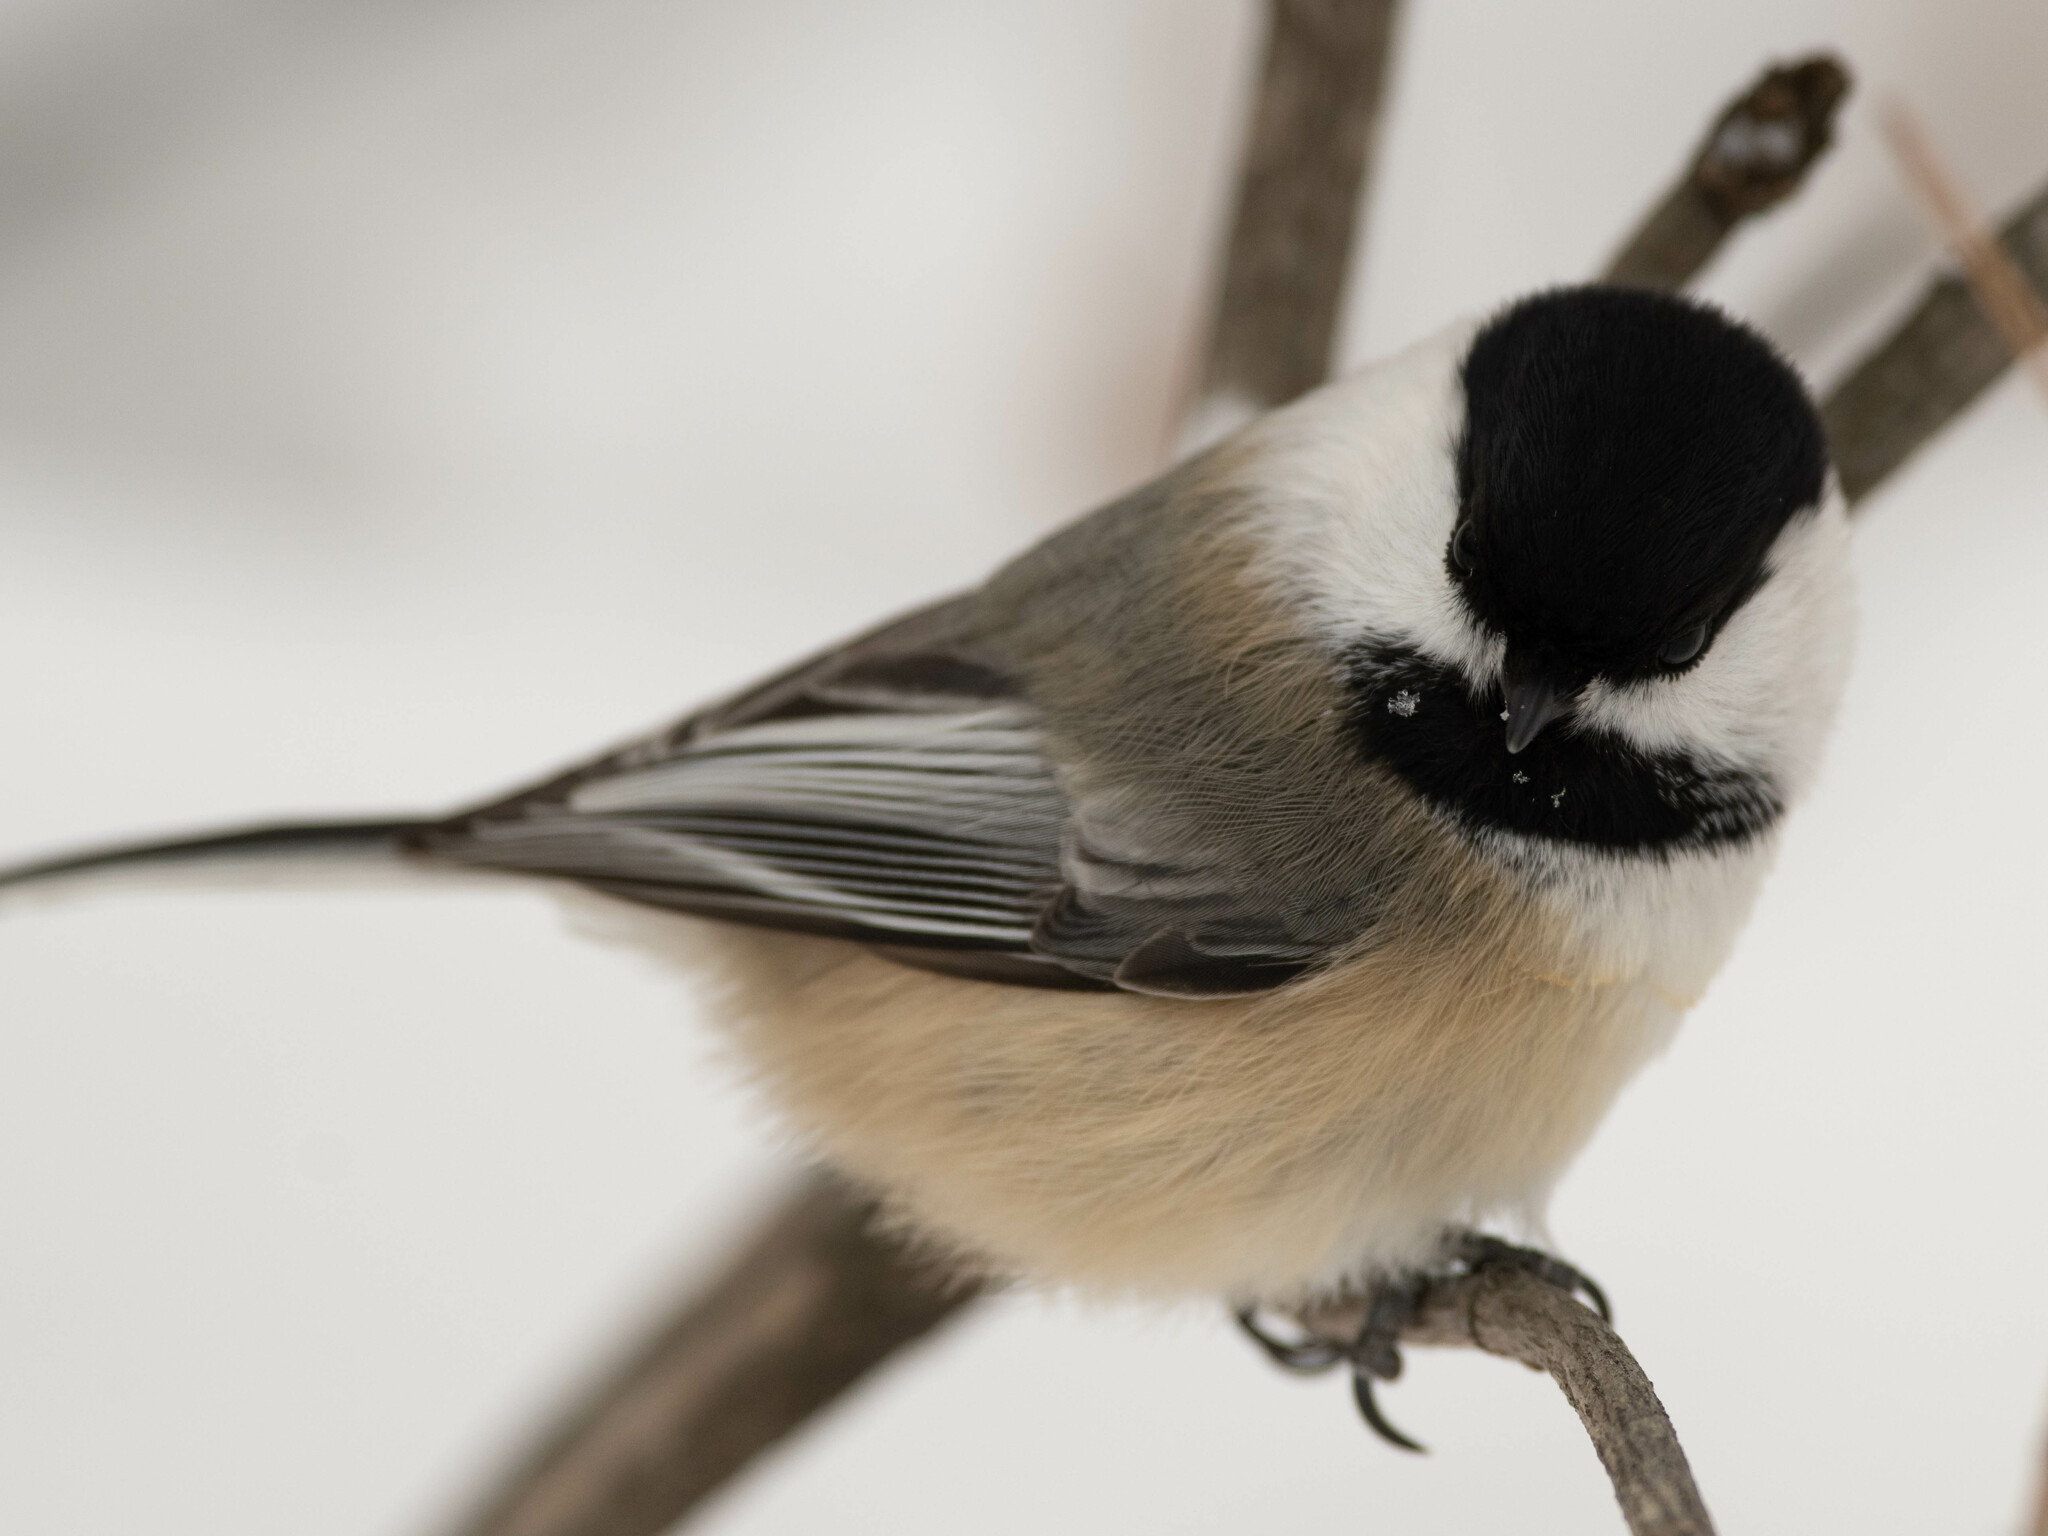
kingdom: Animalia
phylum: Chordata
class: Aves
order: Passeriformes
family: Paridae
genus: Poecile
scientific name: Poecile atricapillus
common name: Black-capped chickadee
